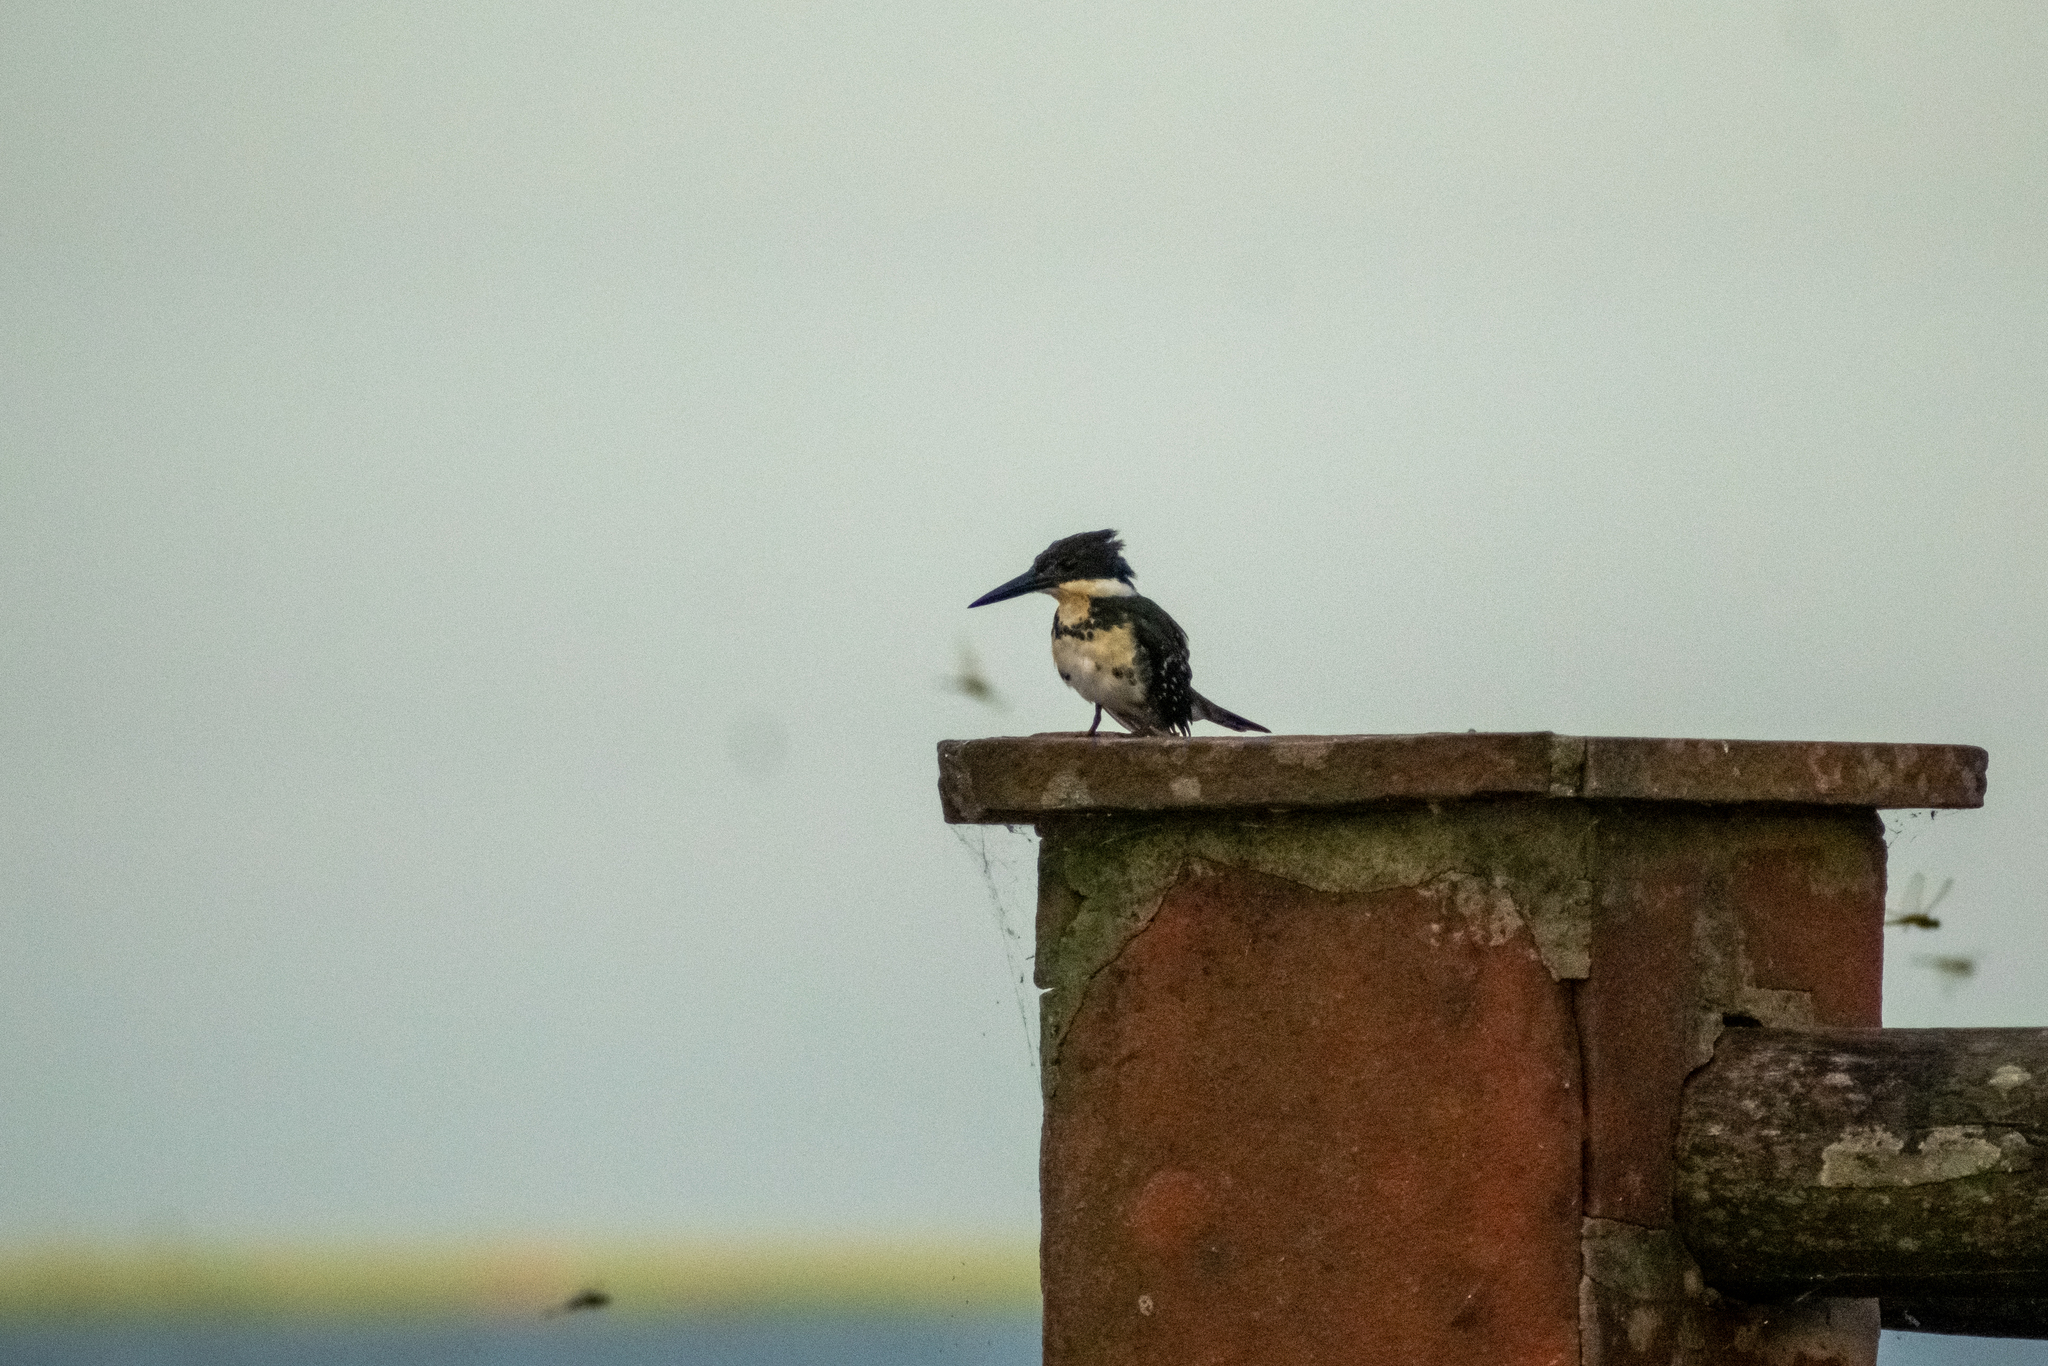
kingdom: Animalia
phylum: Chordata
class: Aves
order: Coraciiformes
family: Alcedinidae
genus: Chloroceryle
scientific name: Chloroceryle americana
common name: Green kingfisher
